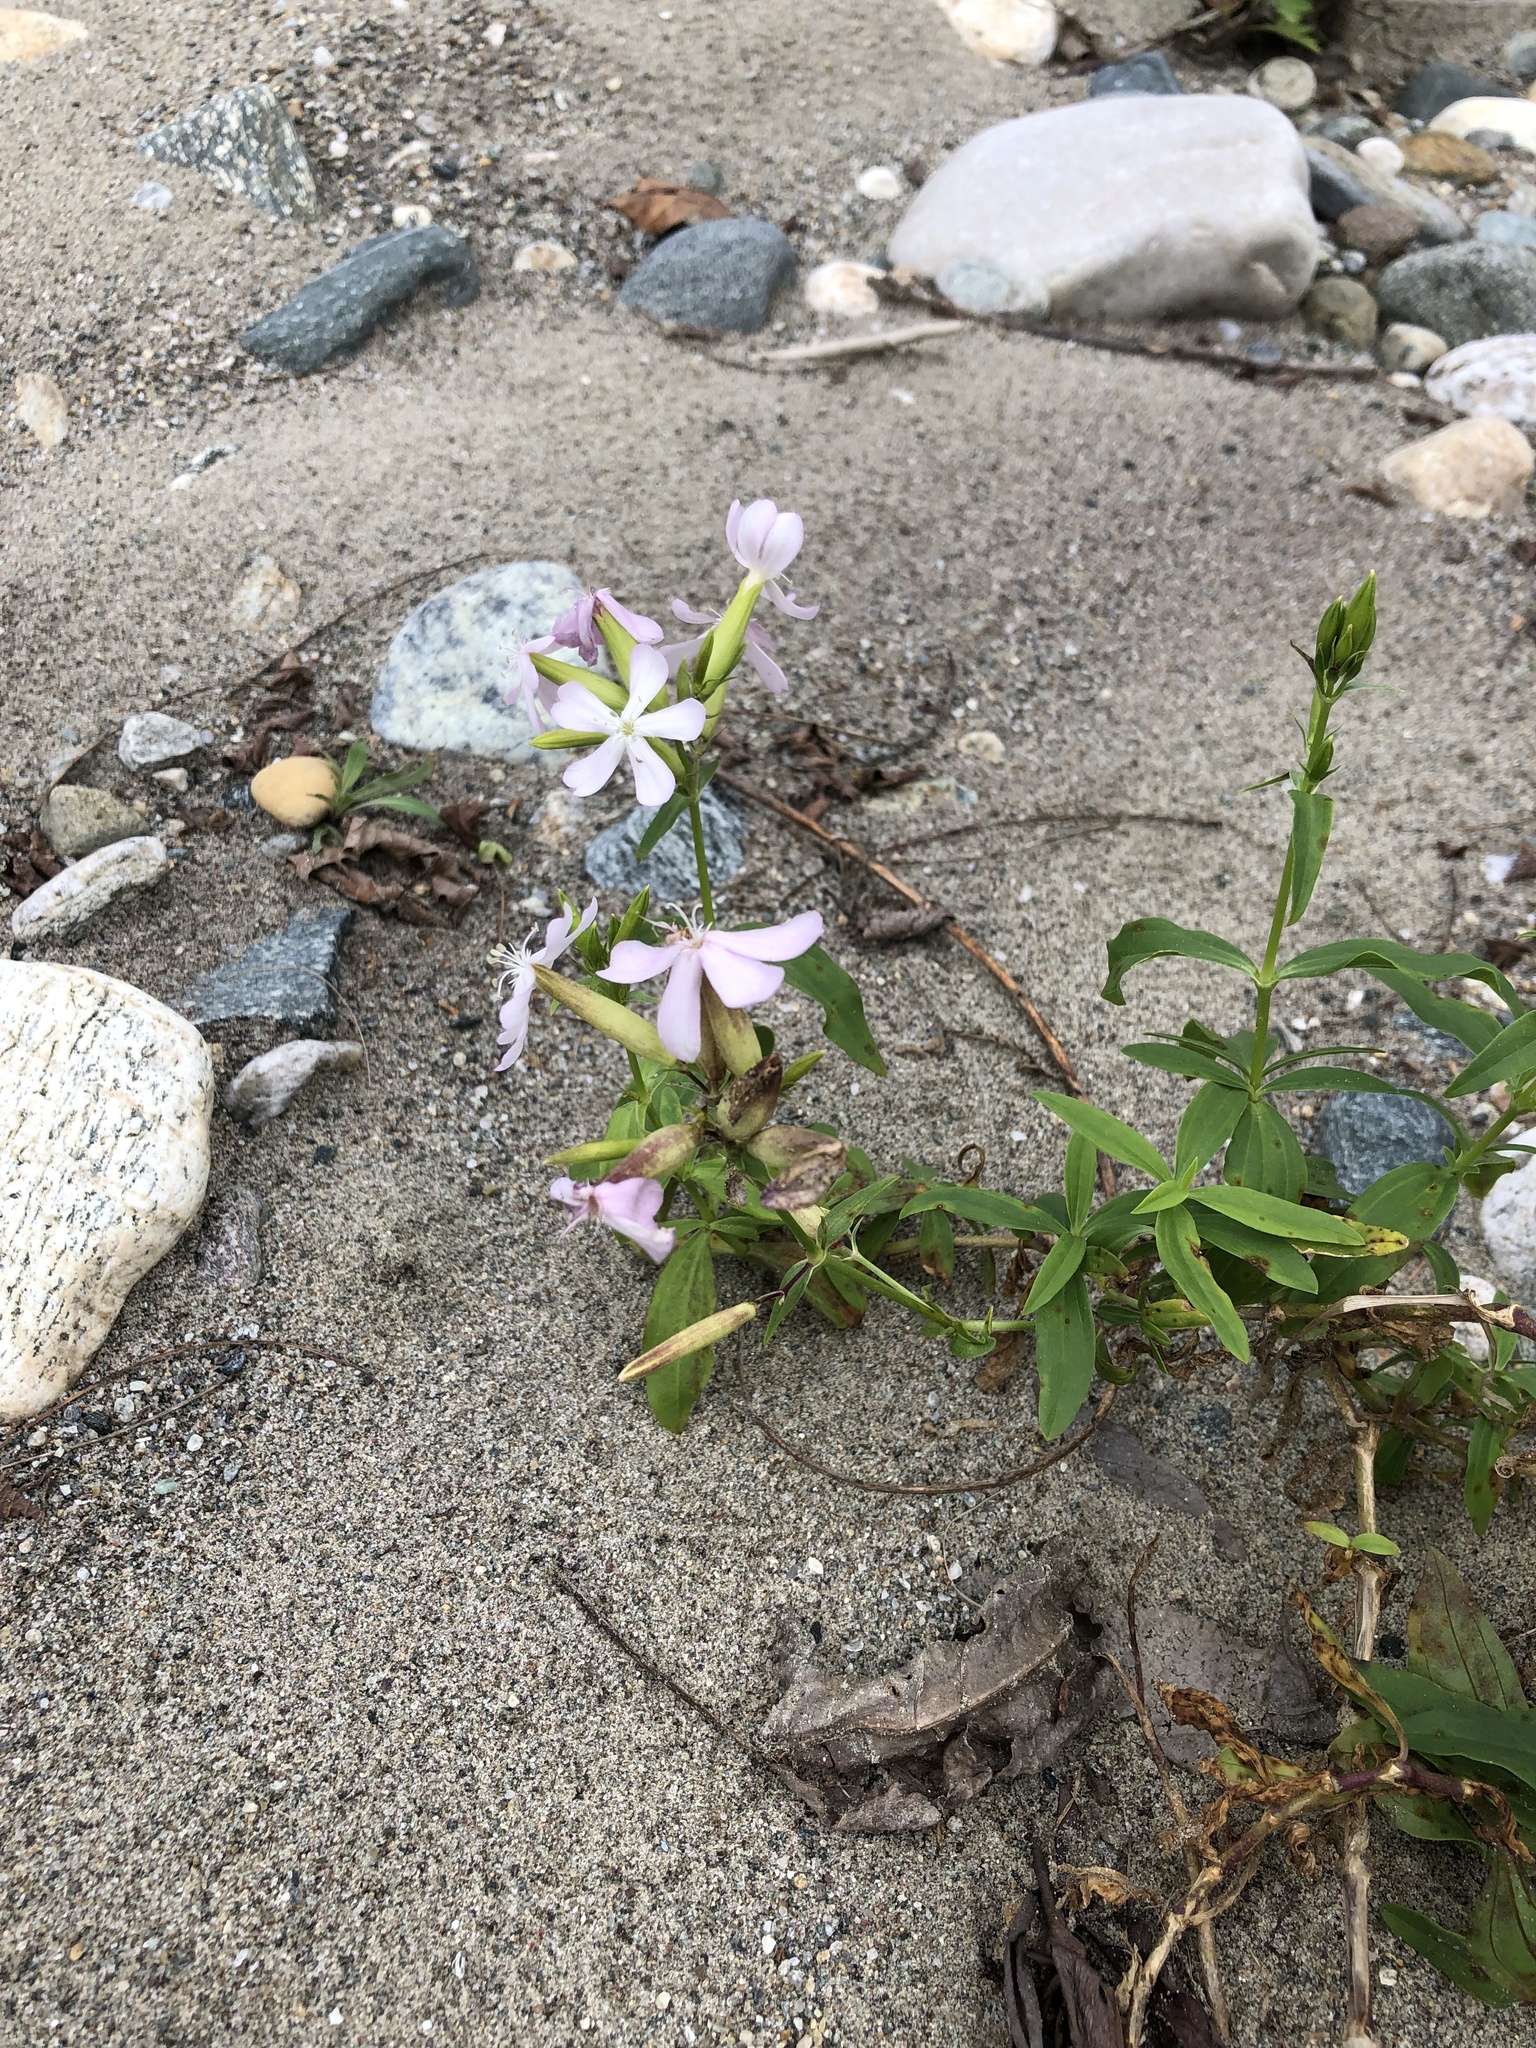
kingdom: Plantae
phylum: Tracheophyta
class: Magnoliopsida
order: Caryophyllales
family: Caryophyllaceae
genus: Saponaria
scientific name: Saponaria officinalis
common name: Soapwort
